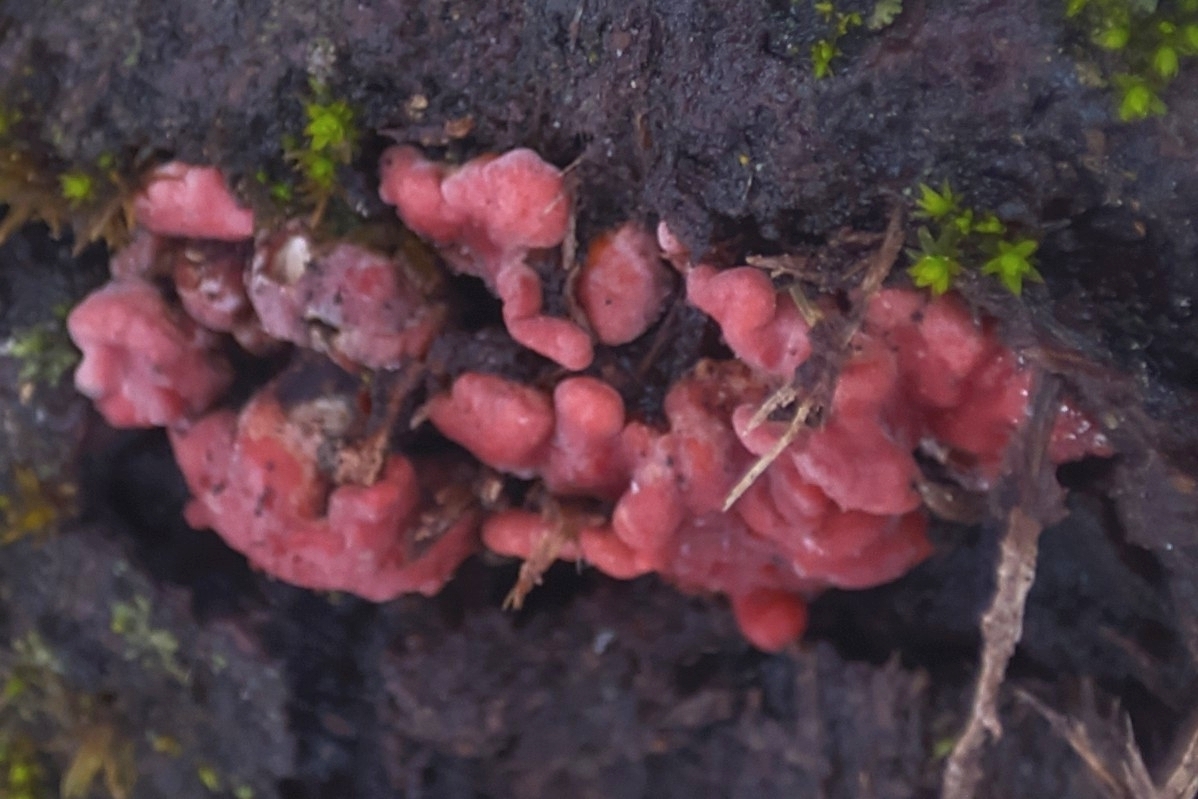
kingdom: Fungi
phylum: Ascomycota
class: Leotiomycetes
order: Helotiales
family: Gelatinodiscaceae
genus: Ascocoryne
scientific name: Ascocoryne sarcoides
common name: Purple jellydisc
